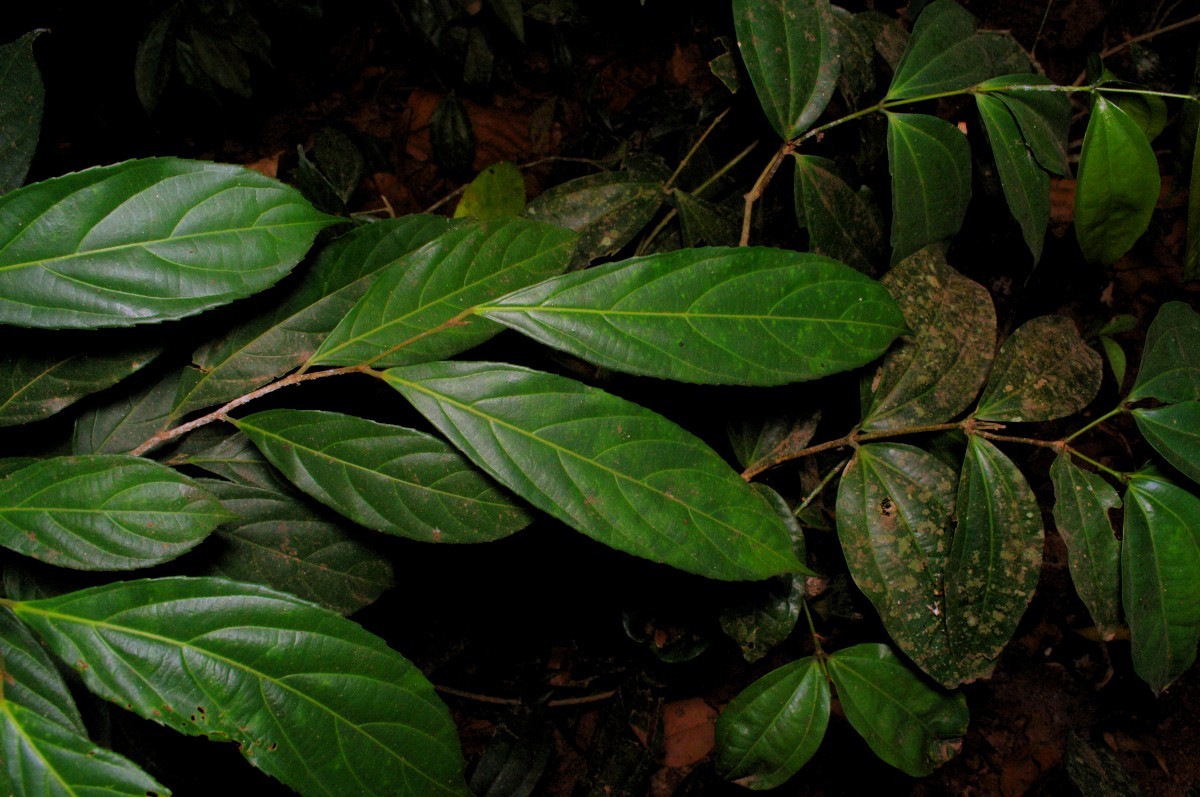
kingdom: Plantae
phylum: Tracheophyta
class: Magnoliopsida
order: Malpighiales
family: Achariaceae
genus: Hydnocarpus
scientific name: Hydnocarpus pentandrus
